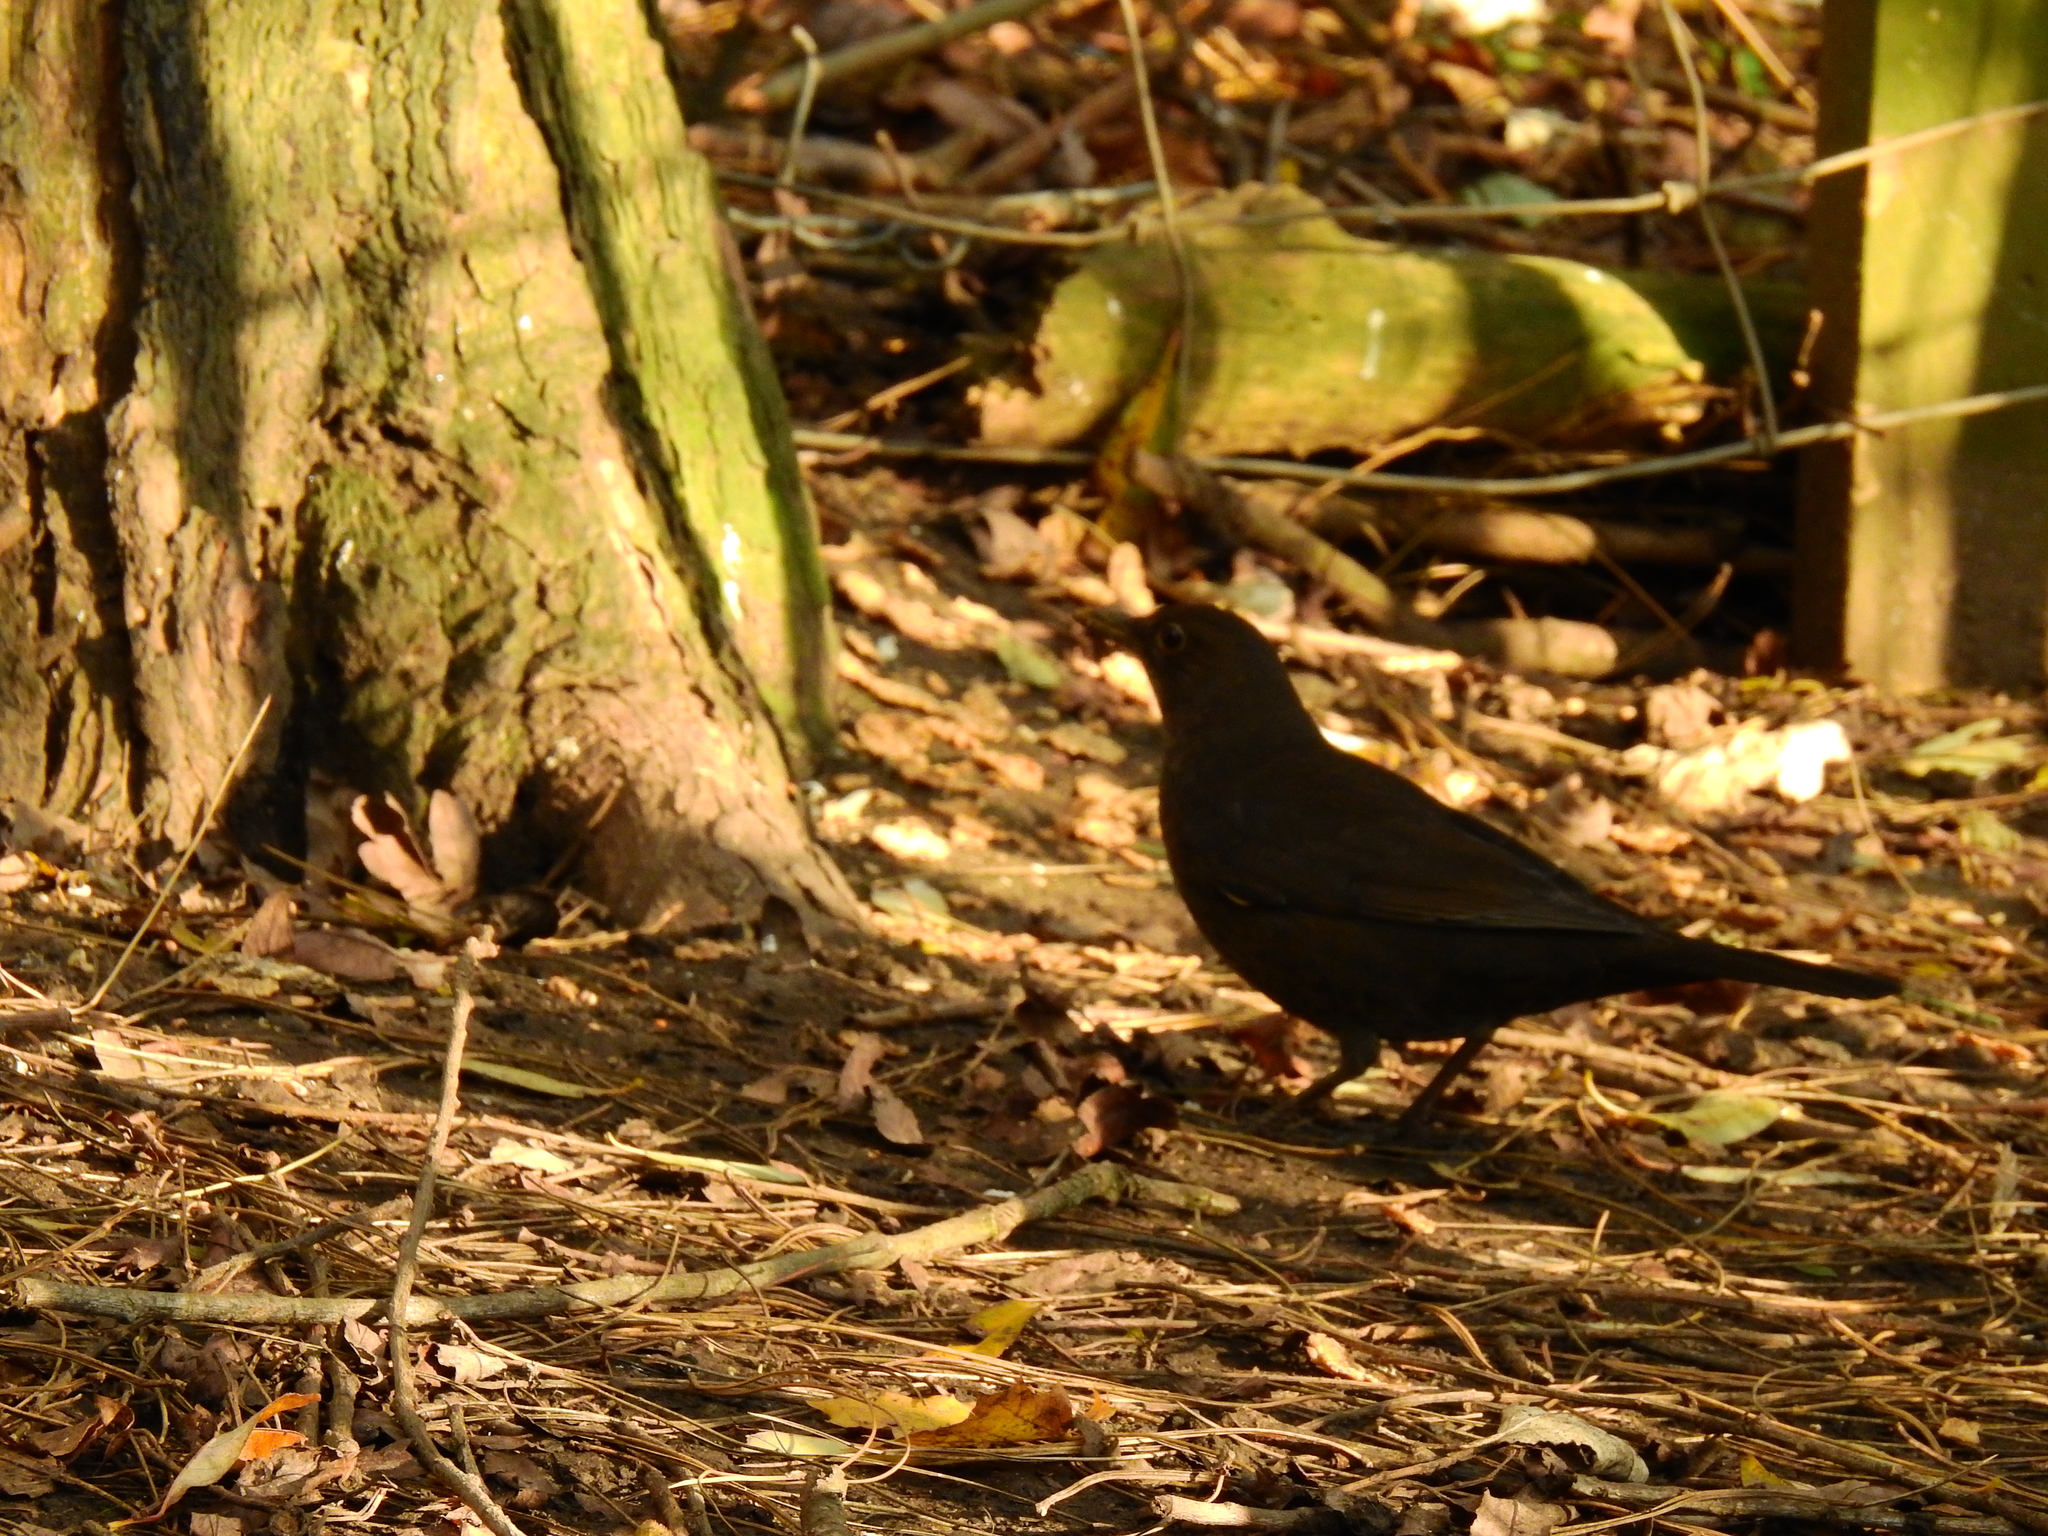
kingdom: Animalia
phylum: Chordata
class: Aves
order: Passeriformes
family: Turdidae
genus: Turdus
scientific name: Turdus merula
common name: Common blackbird
